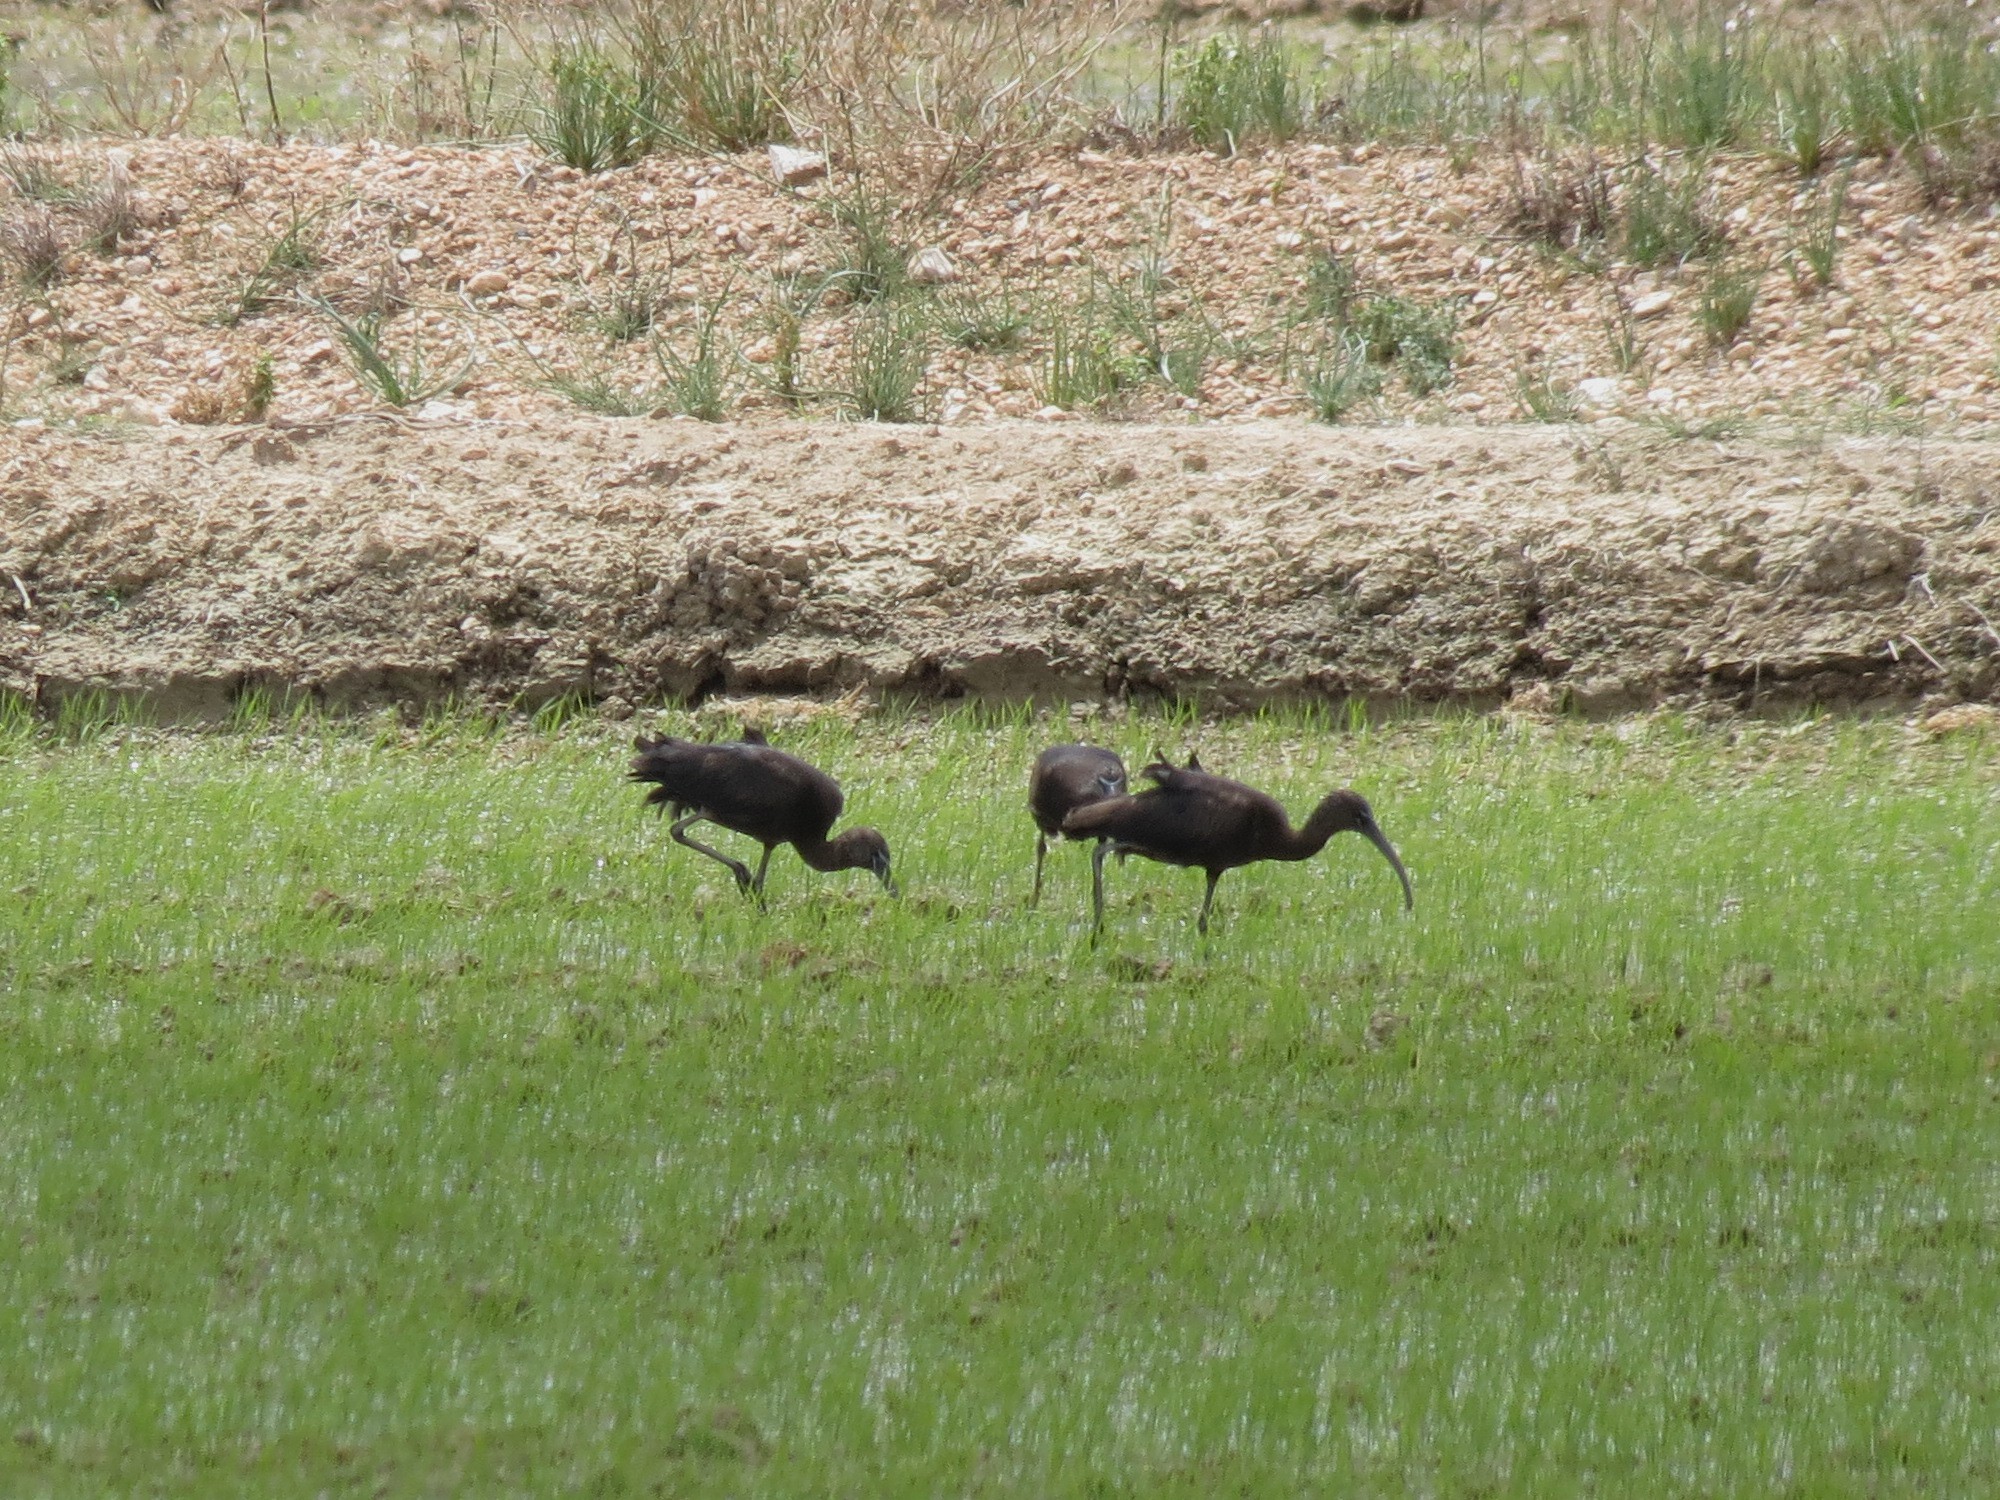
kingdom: Animalia
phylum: Chordata
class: Aves
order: Pelecaniformes
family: Threskiornithidae
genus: Plegadis
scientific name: Plegadis falcinellus
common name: Glossy ibis
